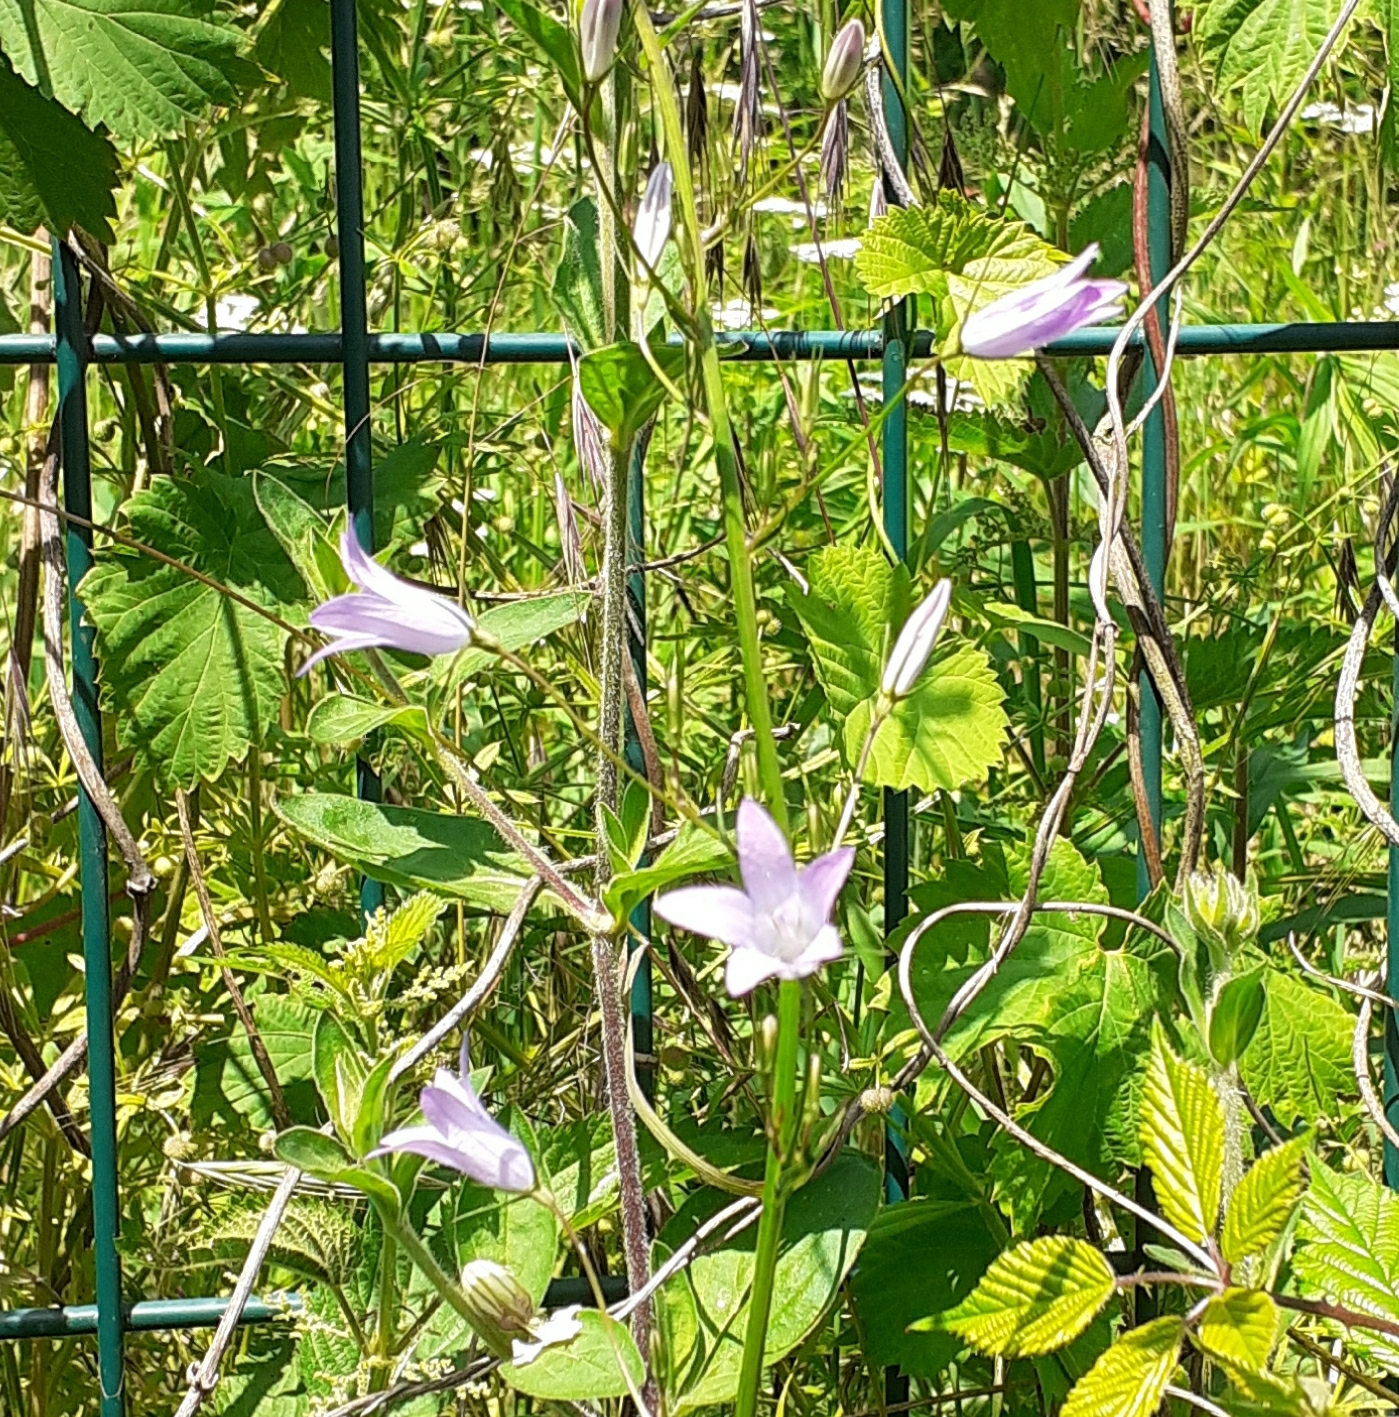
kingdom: Plantae
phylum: Tracheophyta
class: Magnoliopsida
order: Asterales
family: Campanulaceae
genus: Campanula
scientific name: Campanula rapunculus
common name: Rampion bellflower
